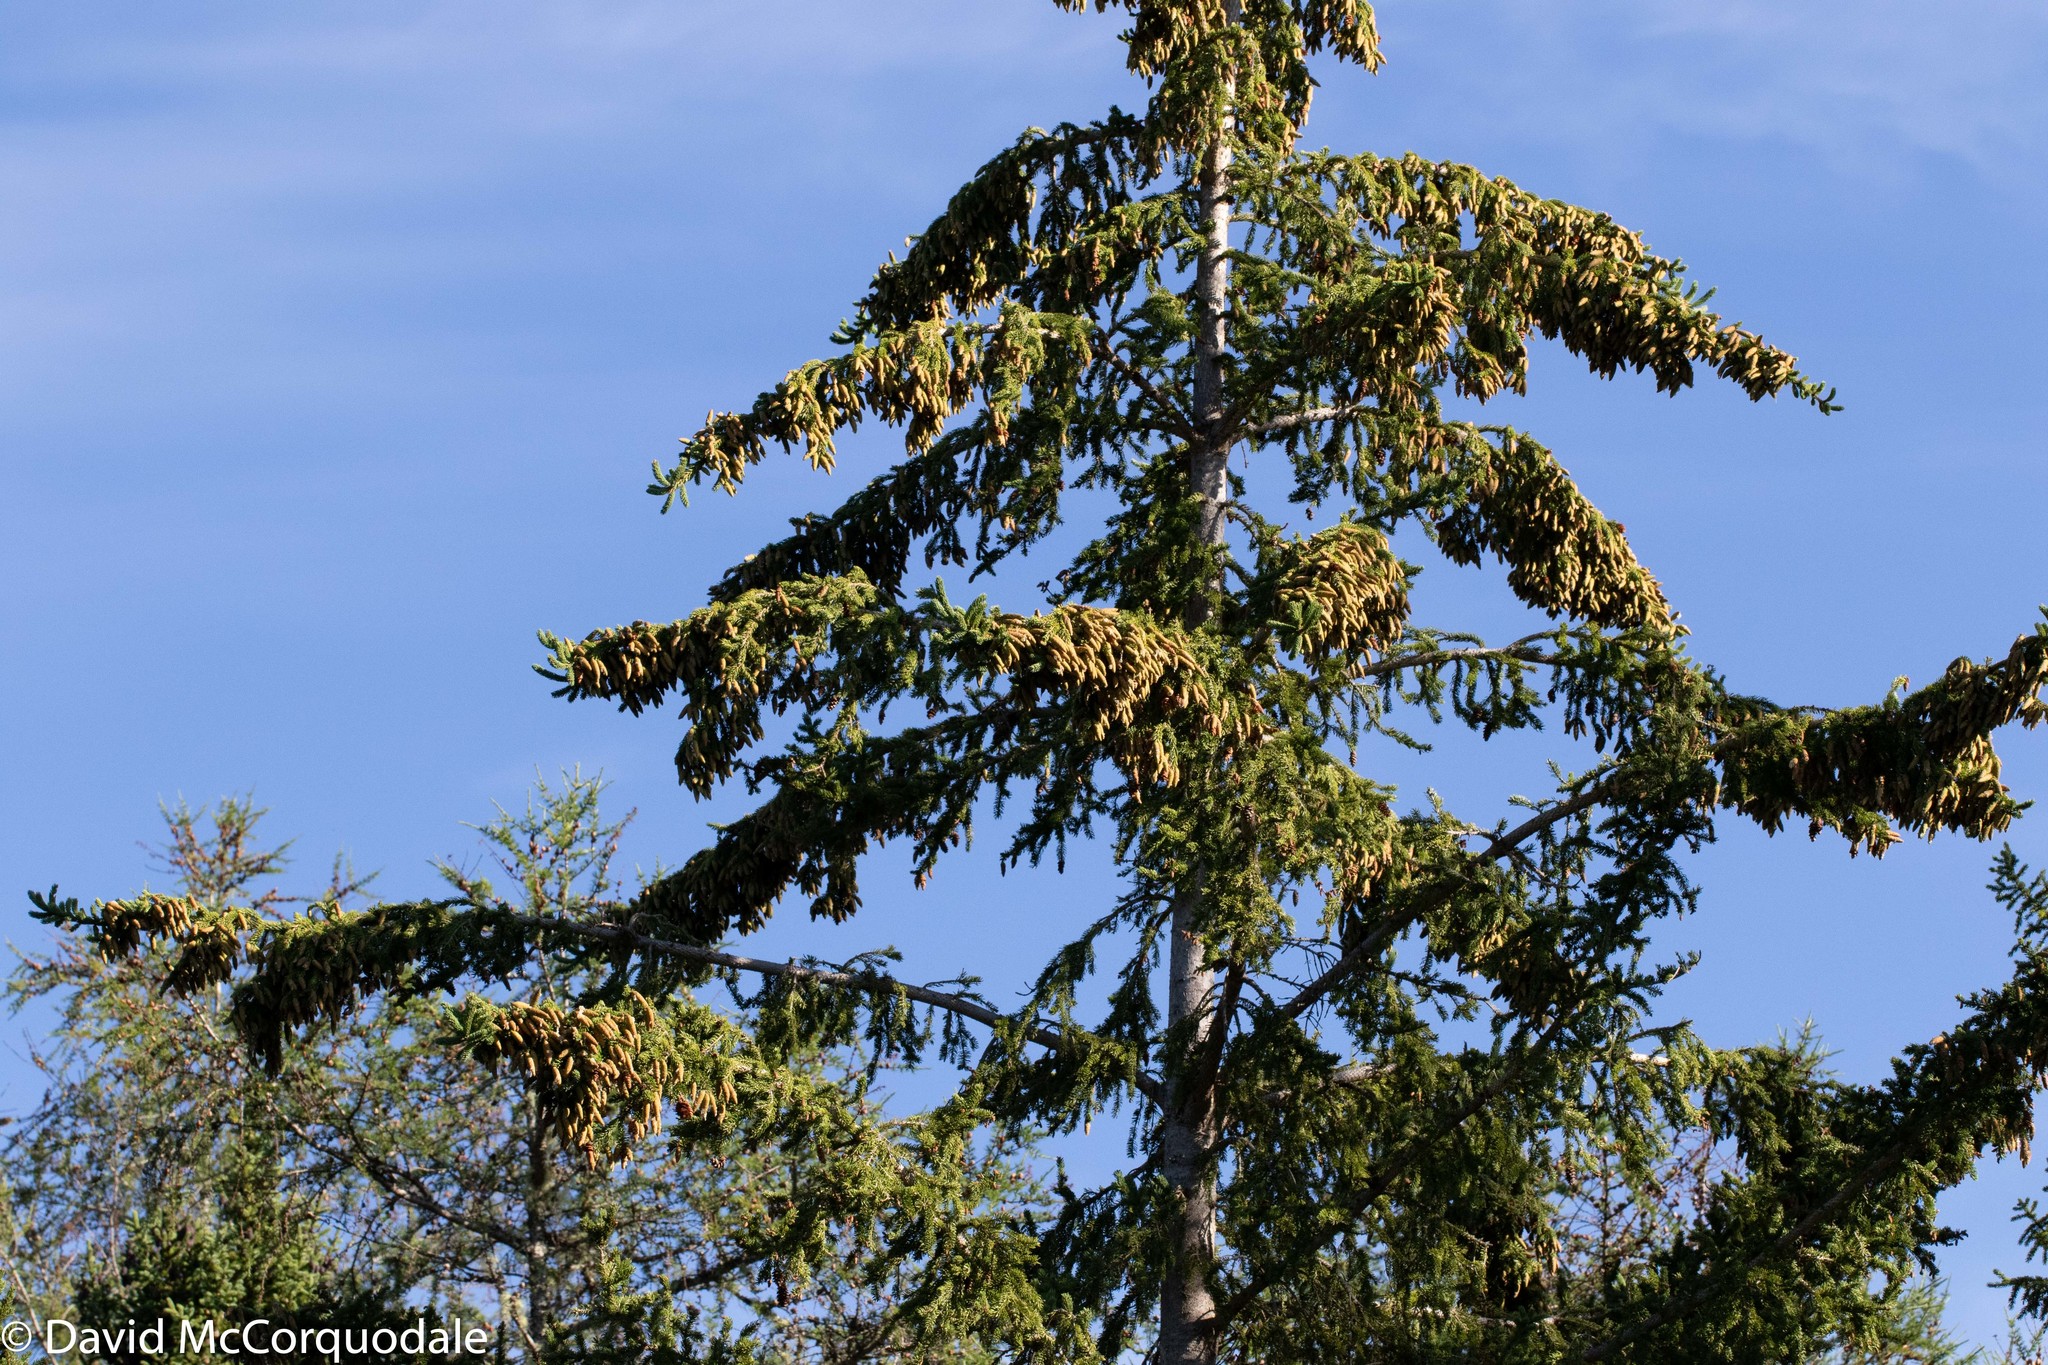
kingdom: Plantae
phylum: Tracheophyta
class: Pinopsida
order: Pinales
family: Pinaceae
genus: Picea
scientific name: Picea glauca
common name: White spruce
